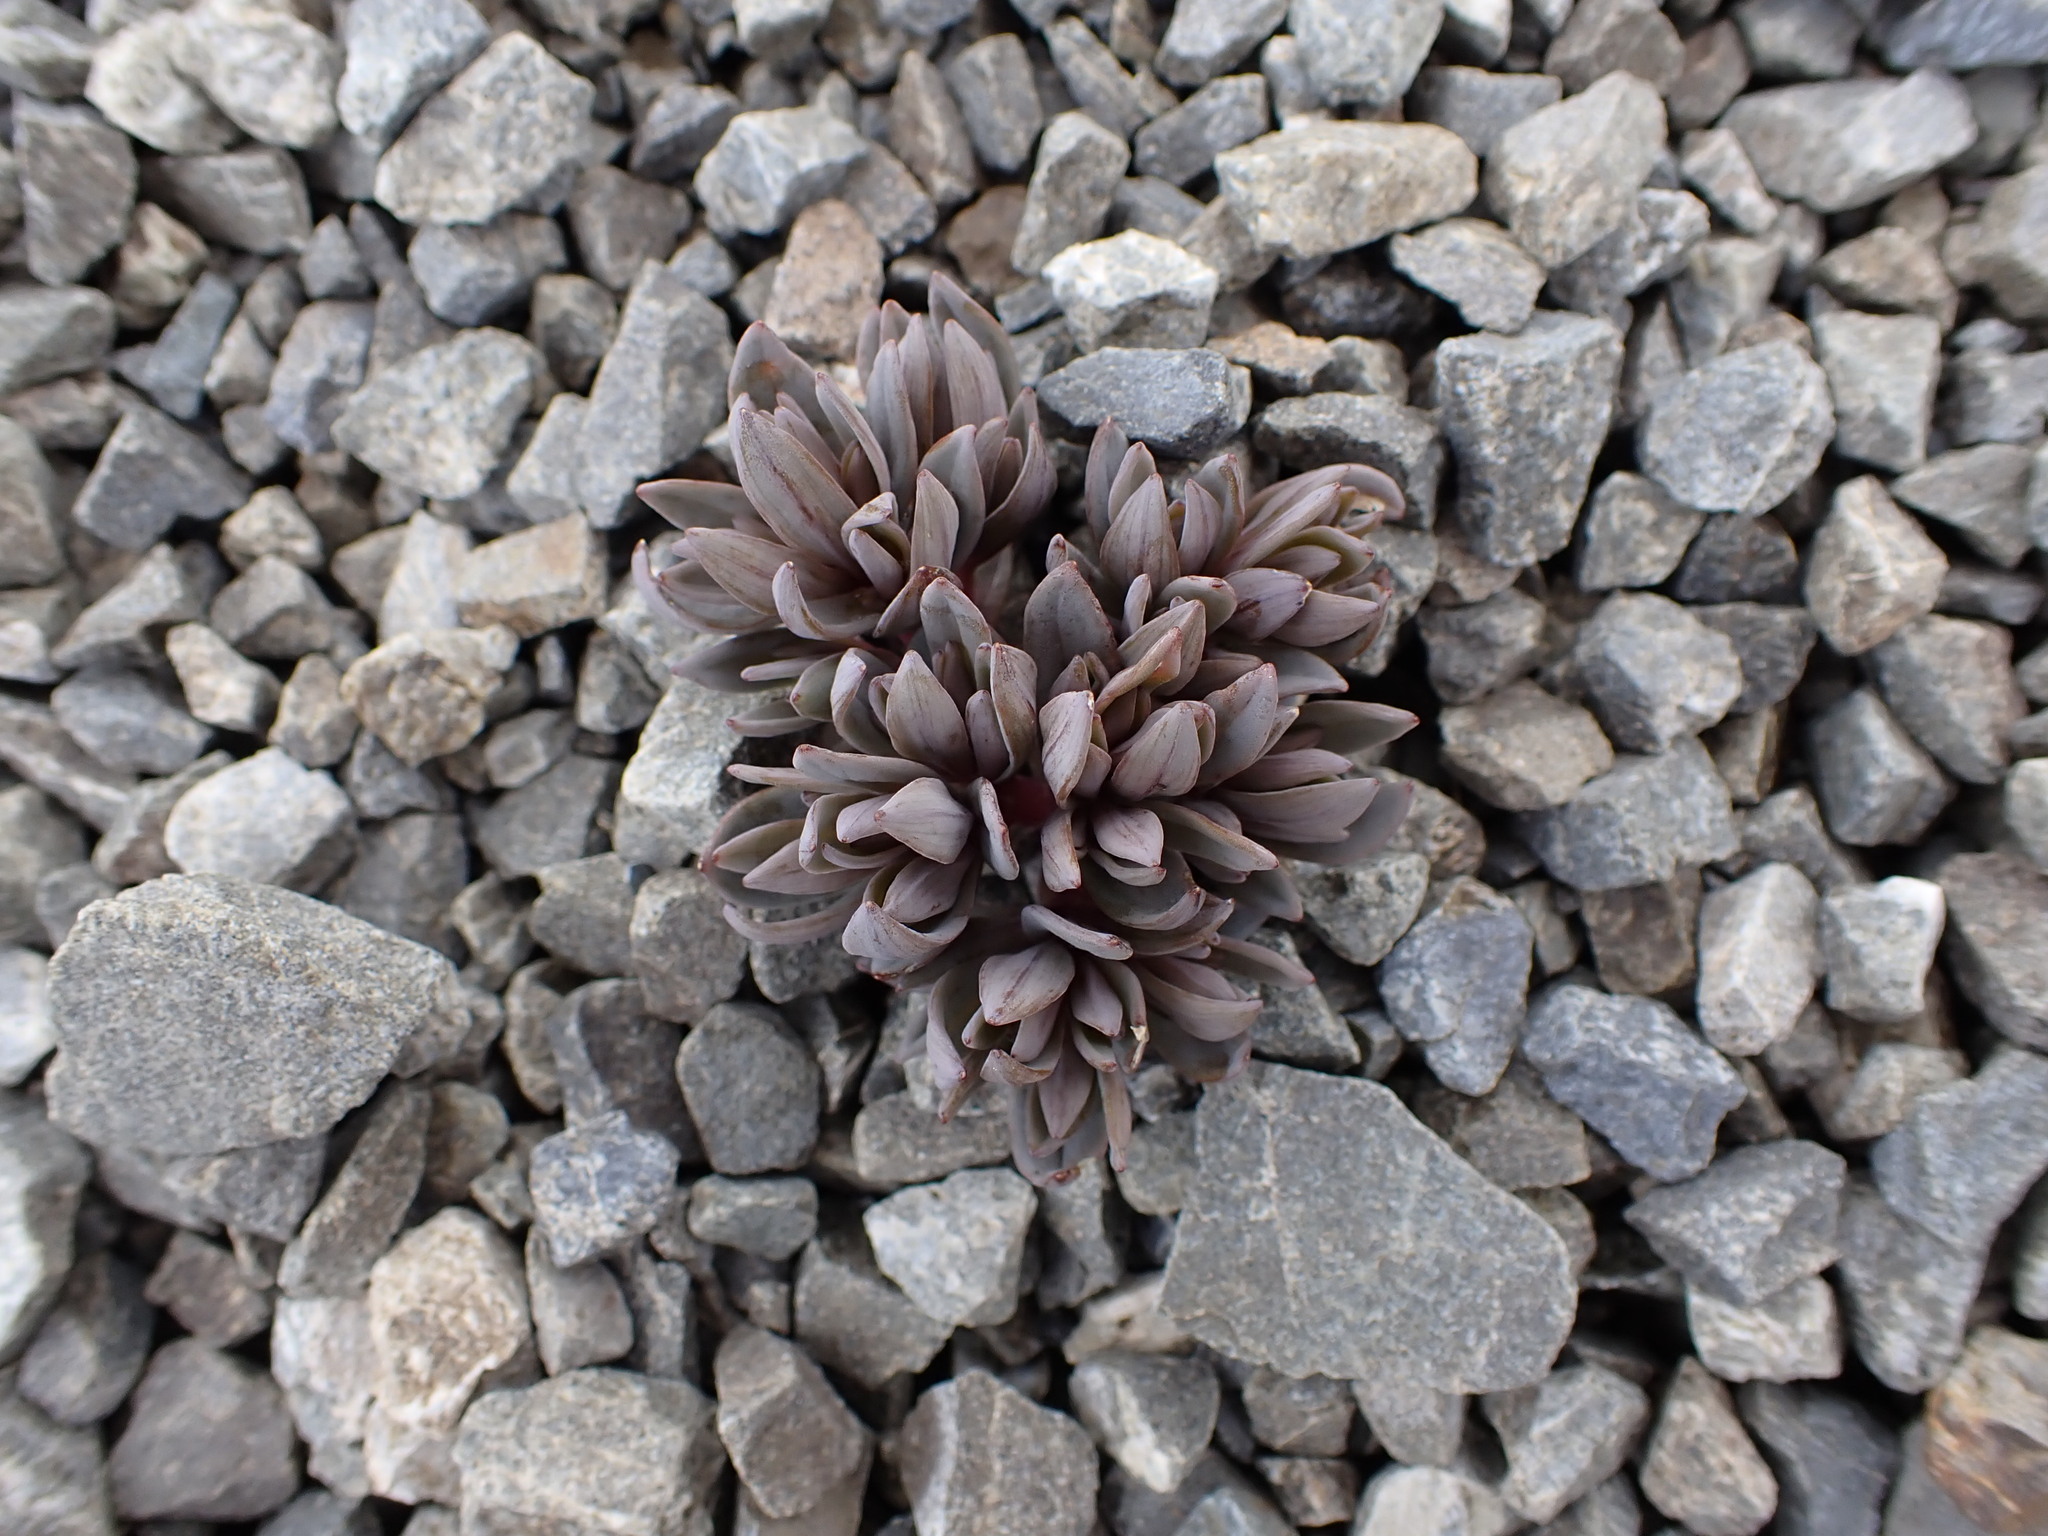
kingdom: Plantae
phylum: Tracheophyta
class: Magnoliopsida
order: Caryophyllales
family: Caryophyllaceae
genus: Stellaria
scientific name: Stellaria roughii
